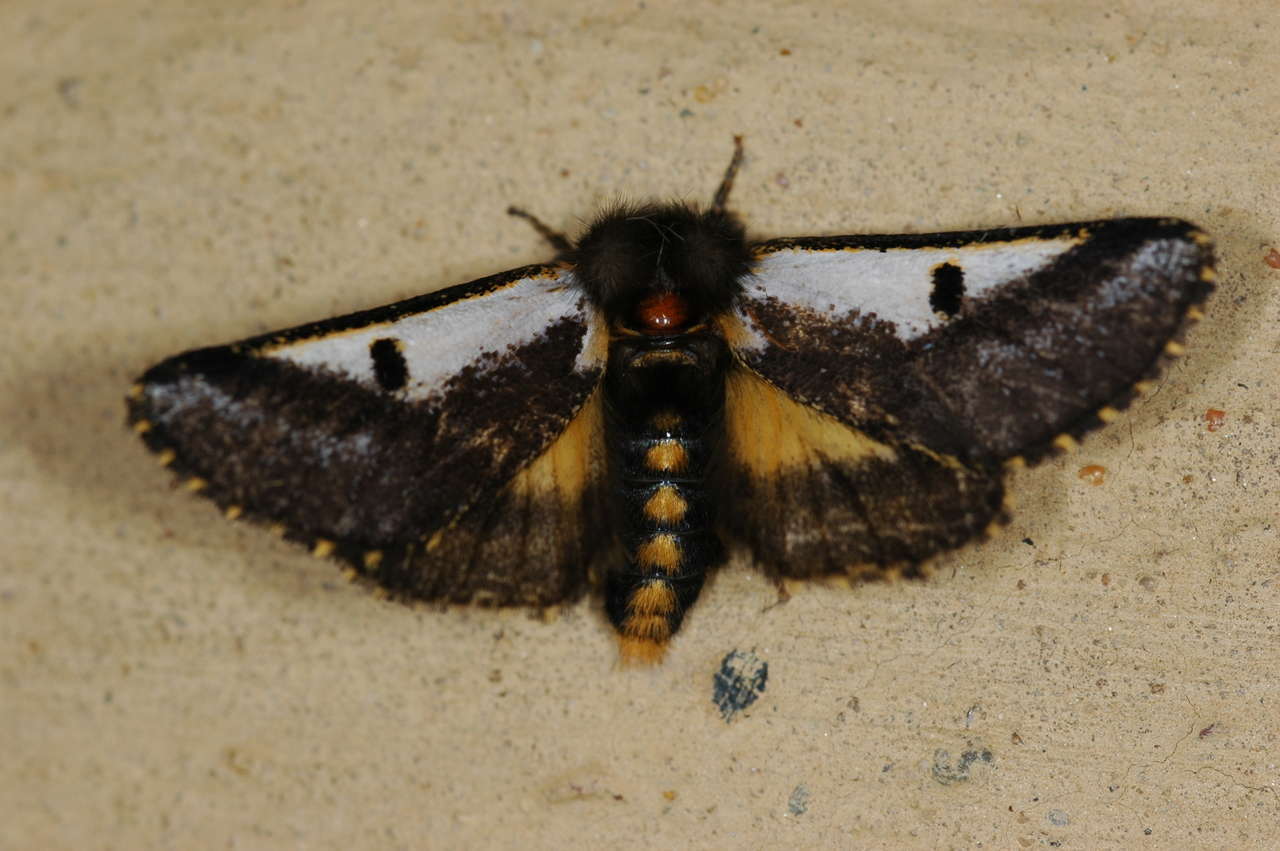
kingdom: Animalia
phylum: Arthropoda
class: Insecta
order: Lepidoptera
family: Notodontidae
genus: Epicoma
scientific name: Epicoma
